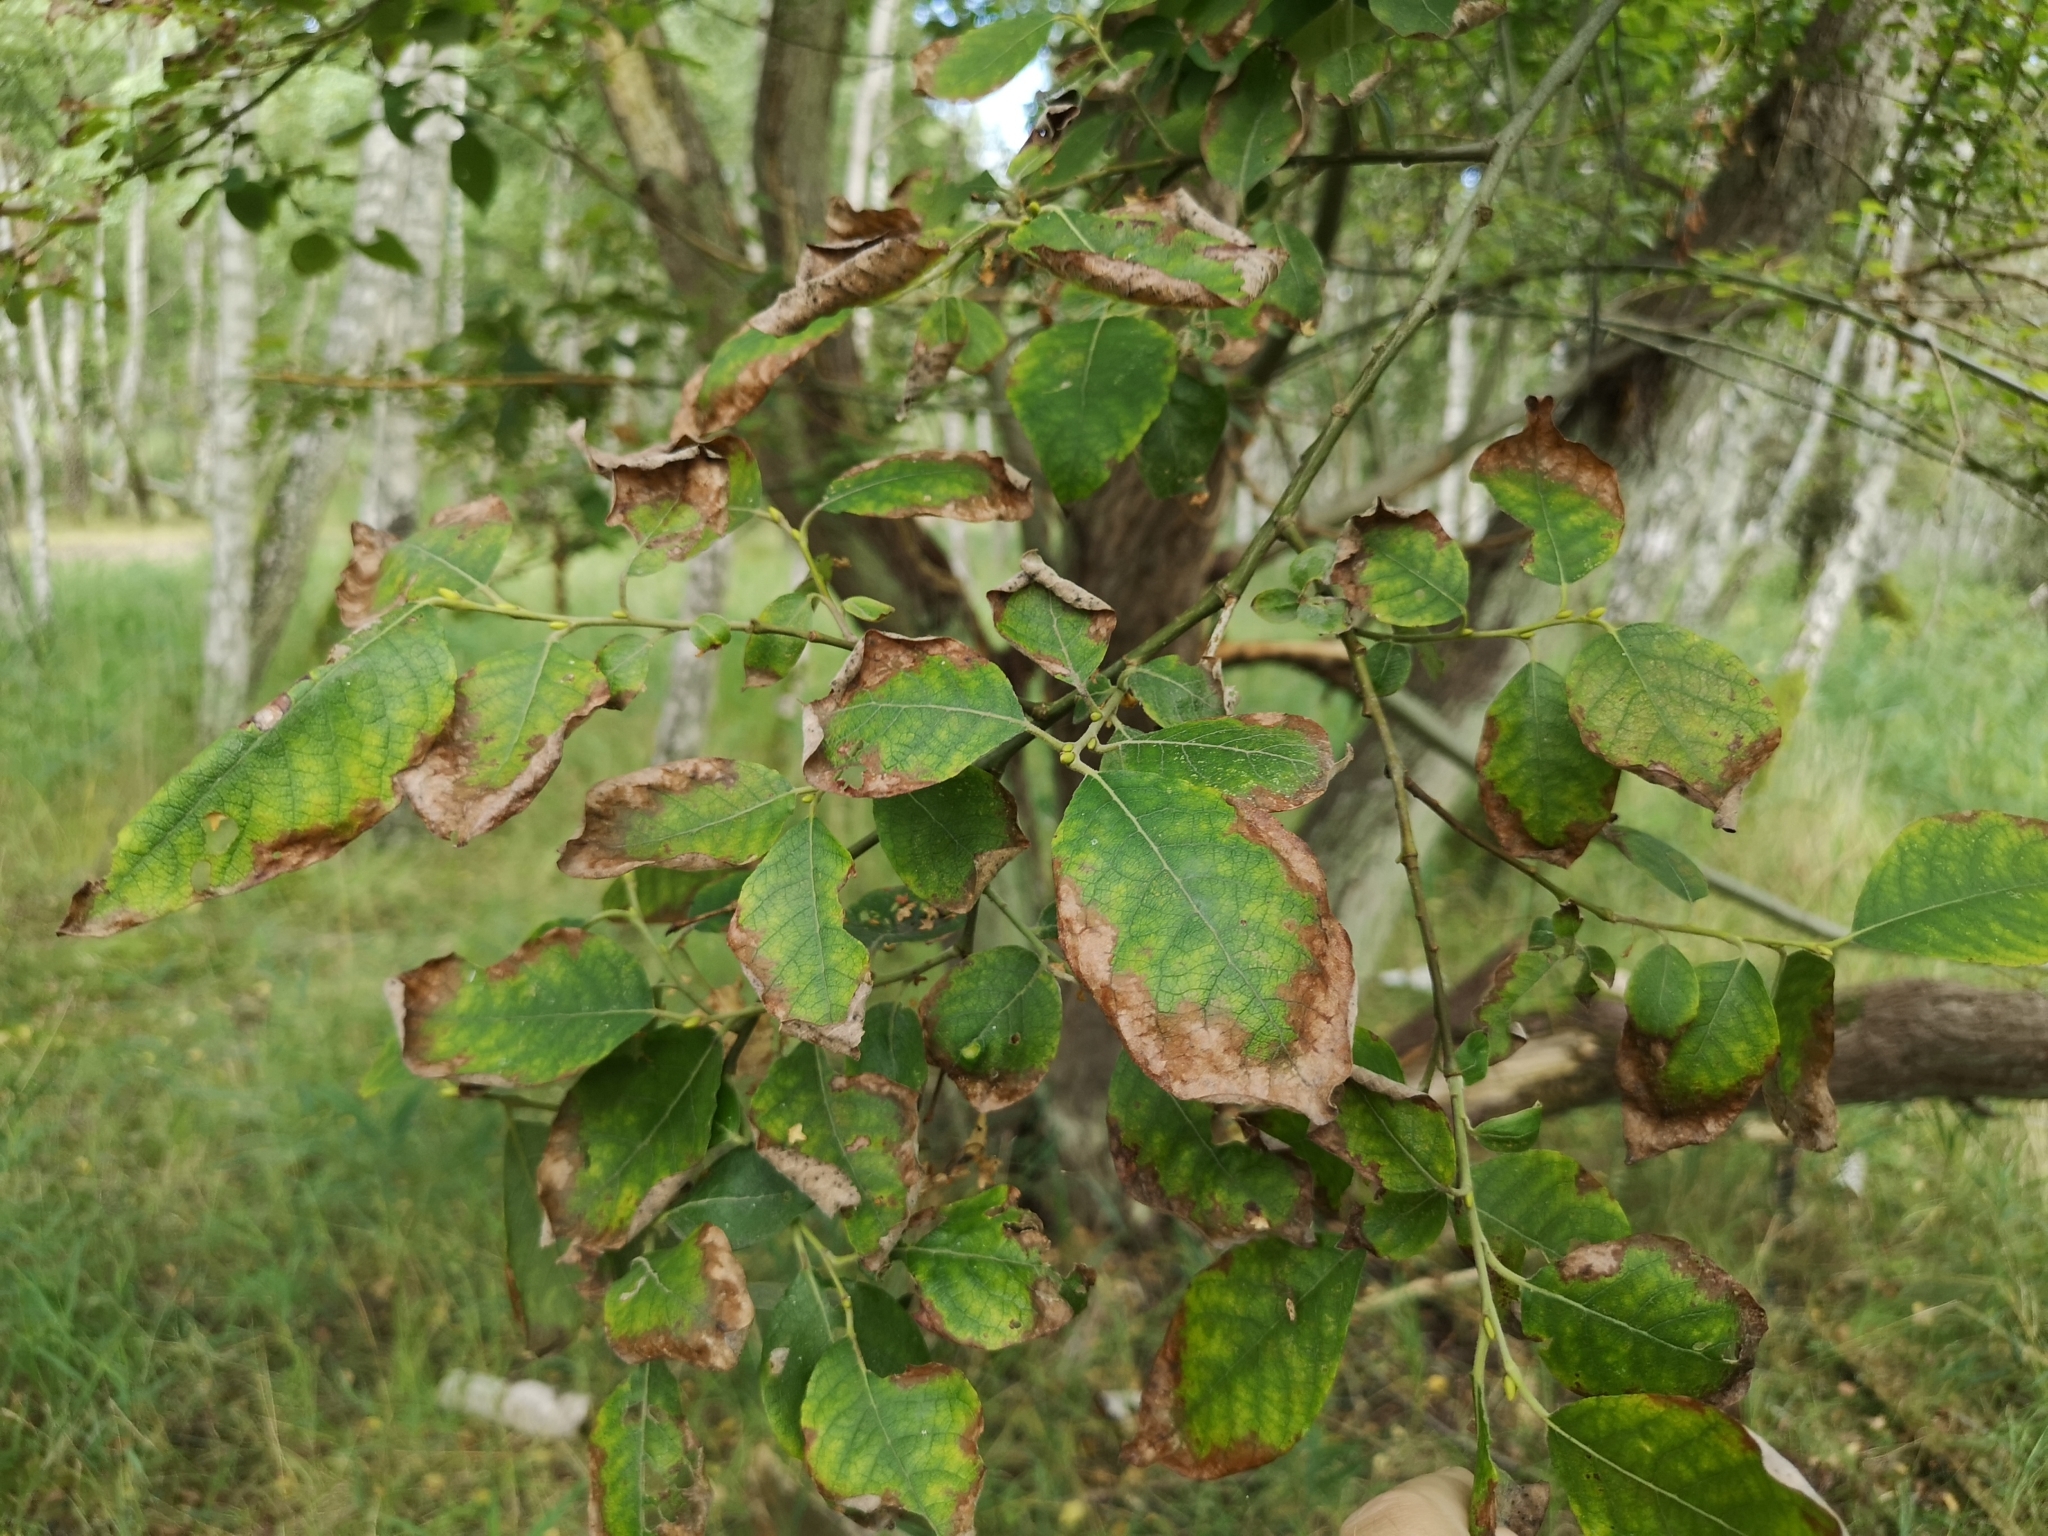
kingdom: Plantae
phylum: Tracheophyta
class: Magnoliopsida
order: Malpighiales
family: Salicaceae
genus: Salix
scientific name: Salix caprea
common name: Goat willow
